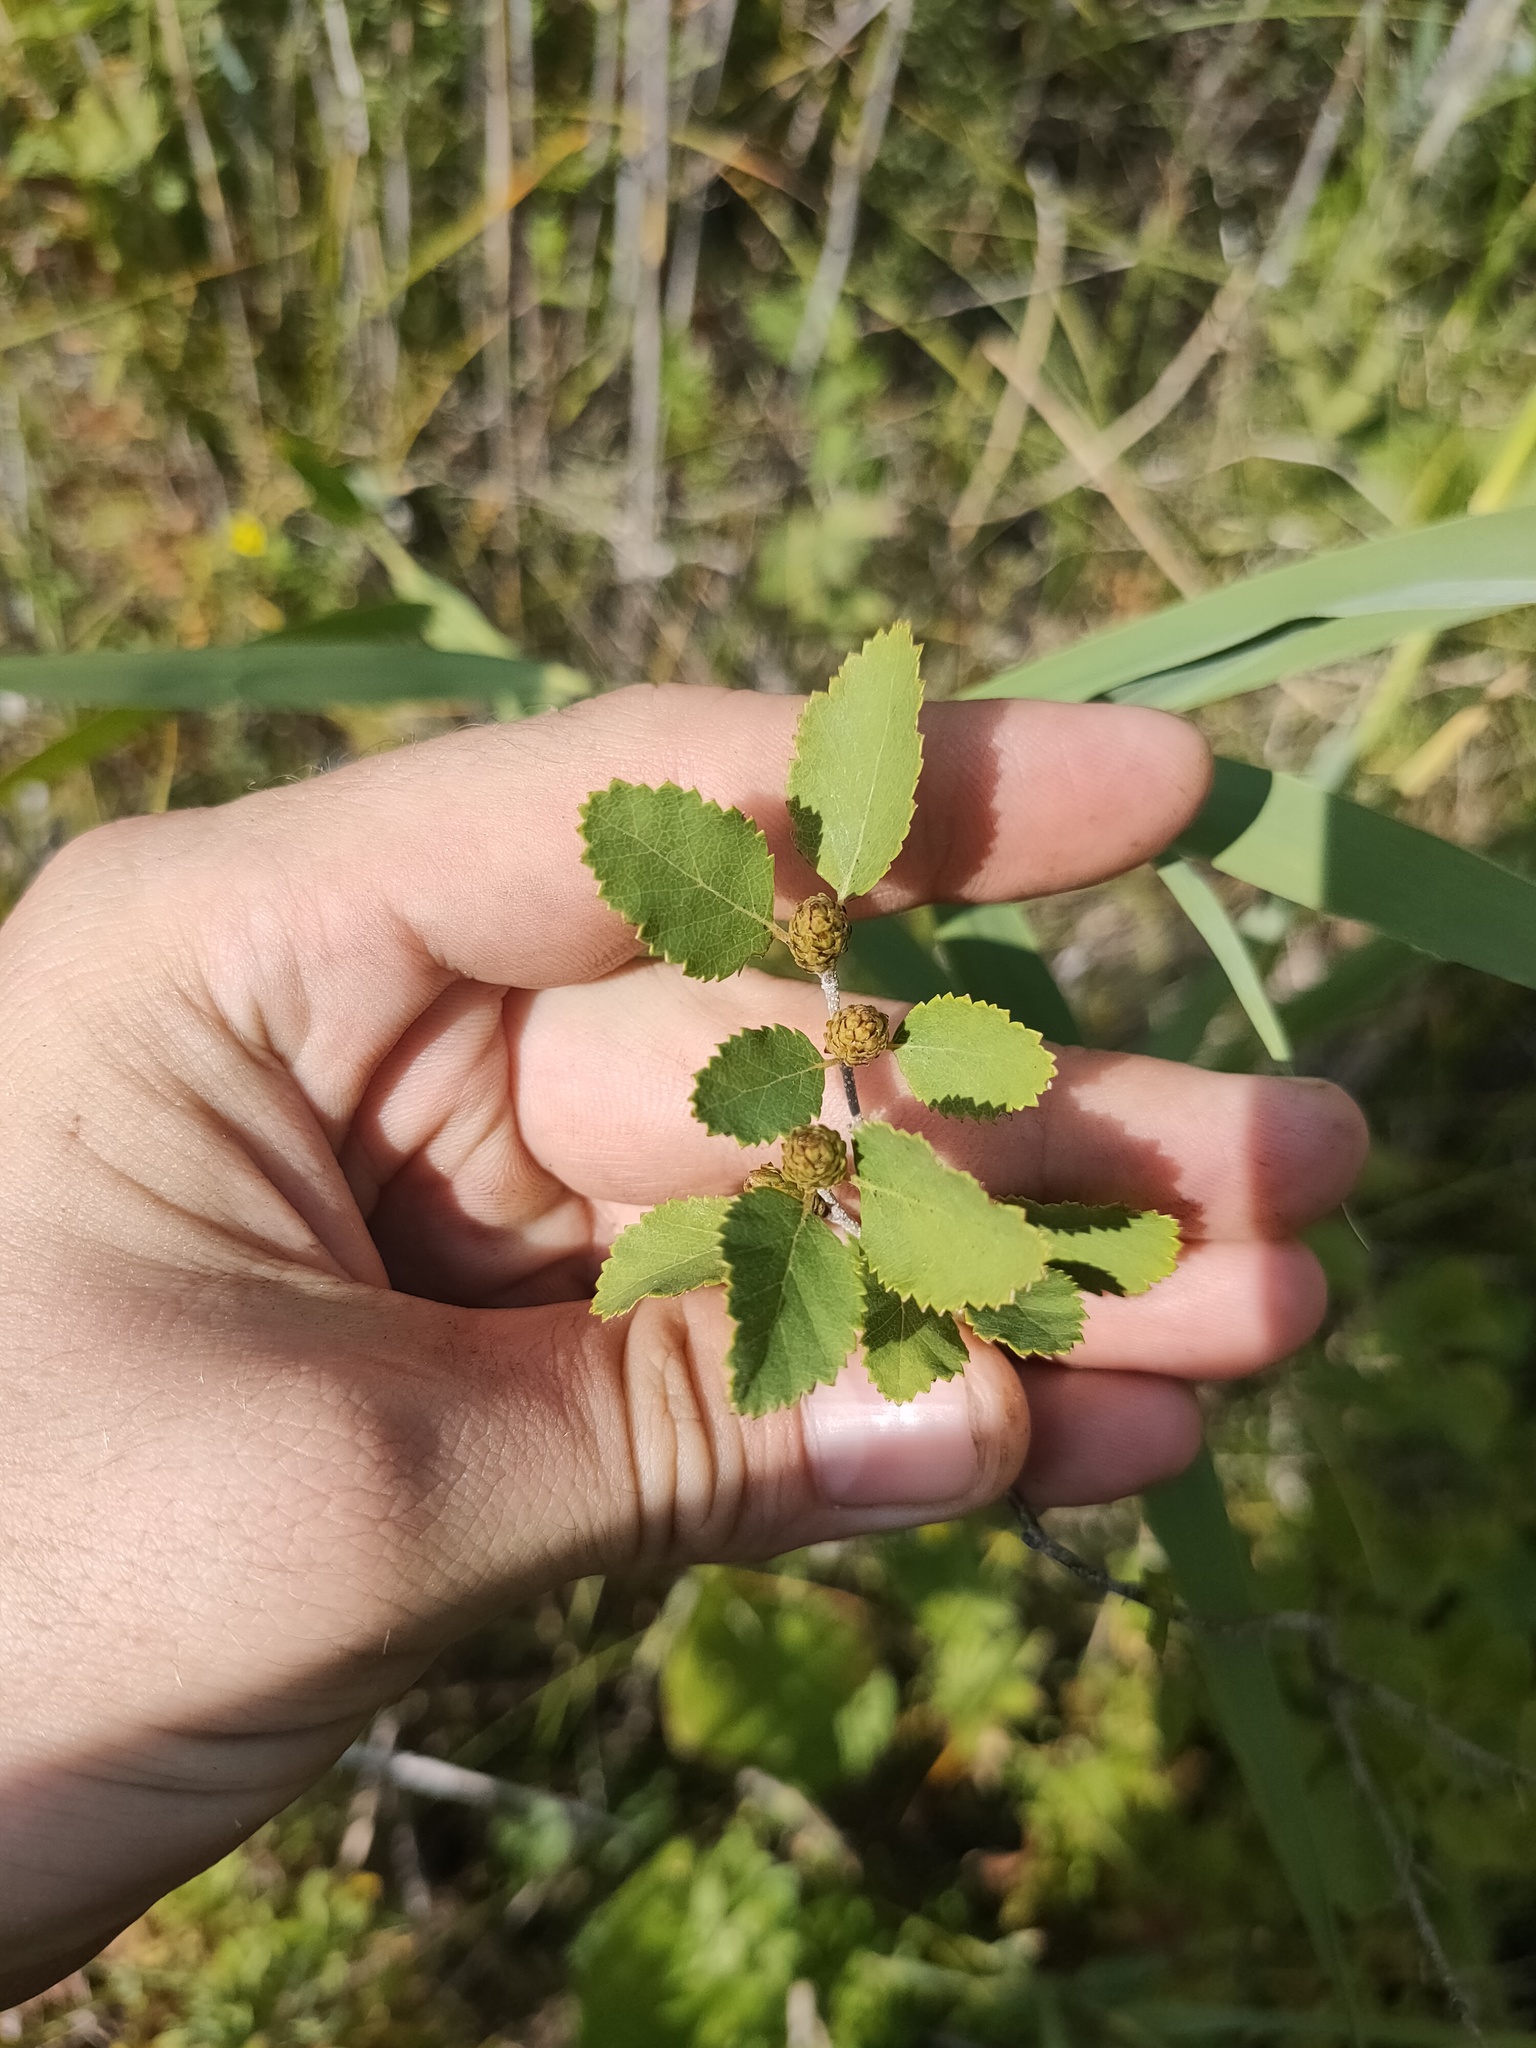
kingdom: Plantae
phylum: Tracheophyta
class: Magnoliopsida
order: Fagales
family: Betulaceae
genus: Betula
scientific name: Betula humilis
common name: Shrubby birch
